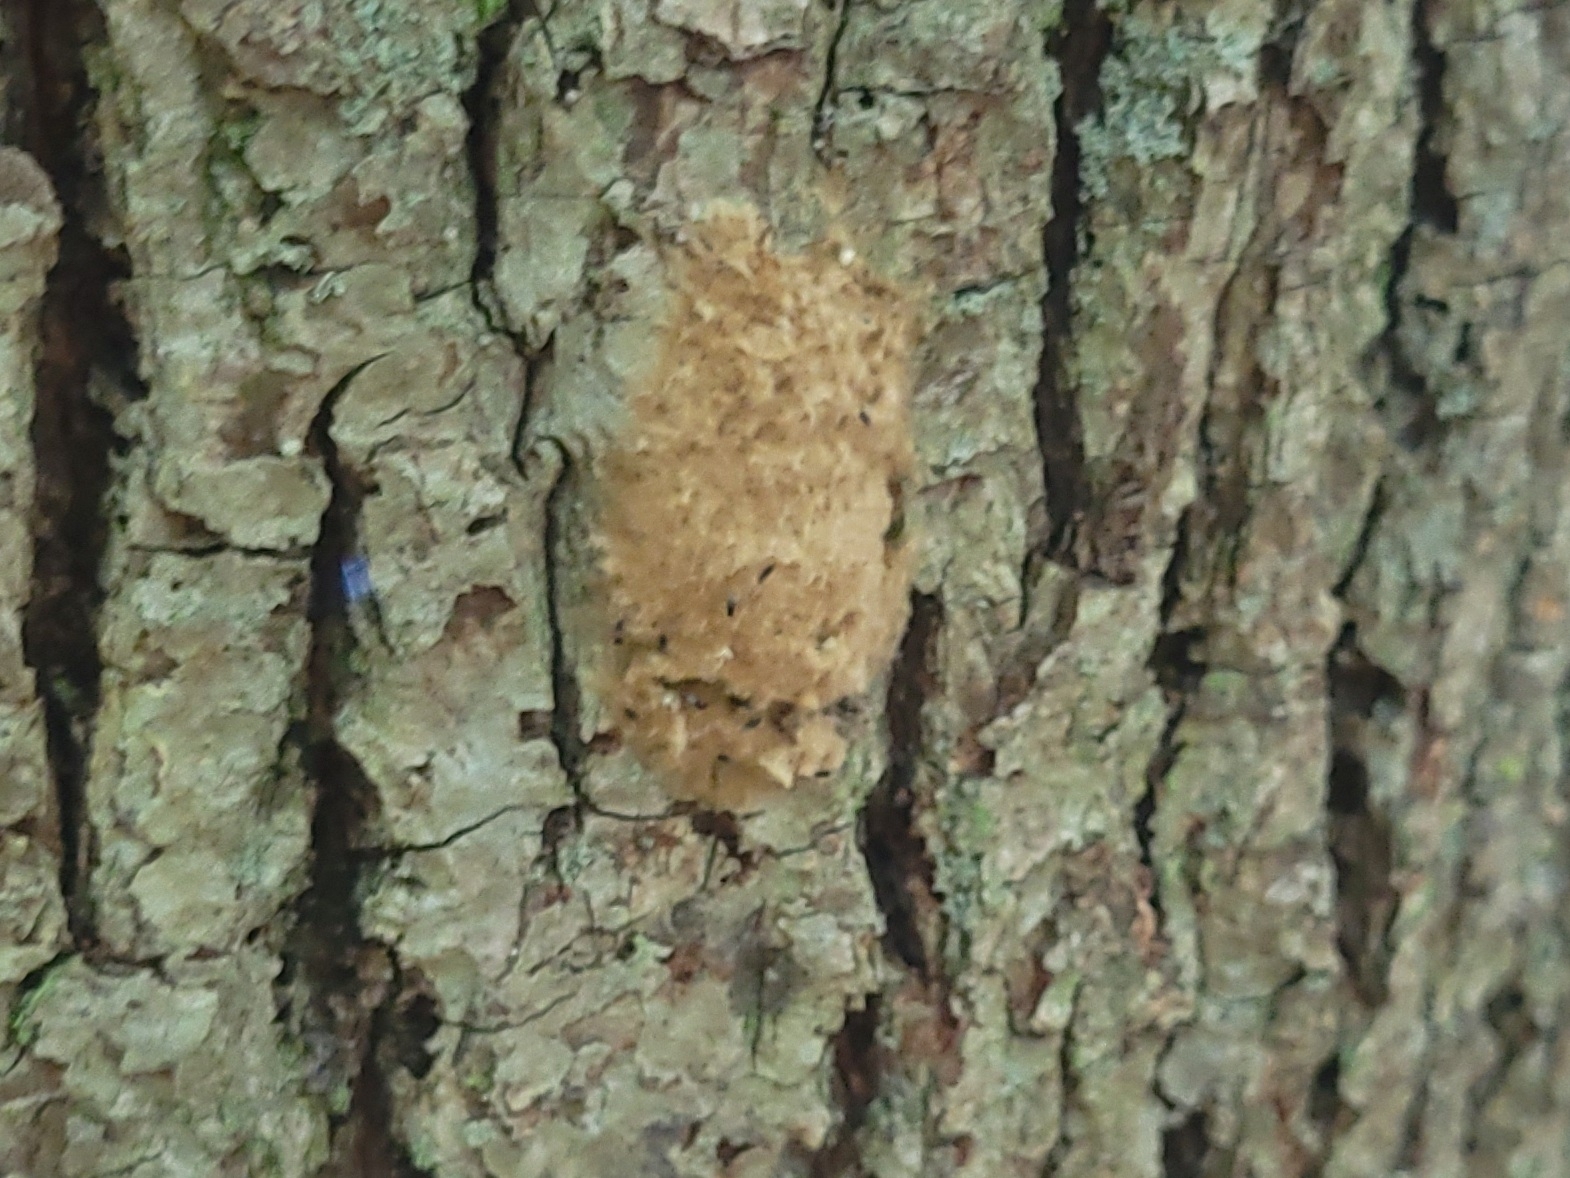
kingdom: Animalia
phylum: Arthropoda
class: Insecta
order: Lepidoptera
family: Erebidae
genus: Lymantria
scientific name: Lymantria dispar
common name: Gypsy moth
